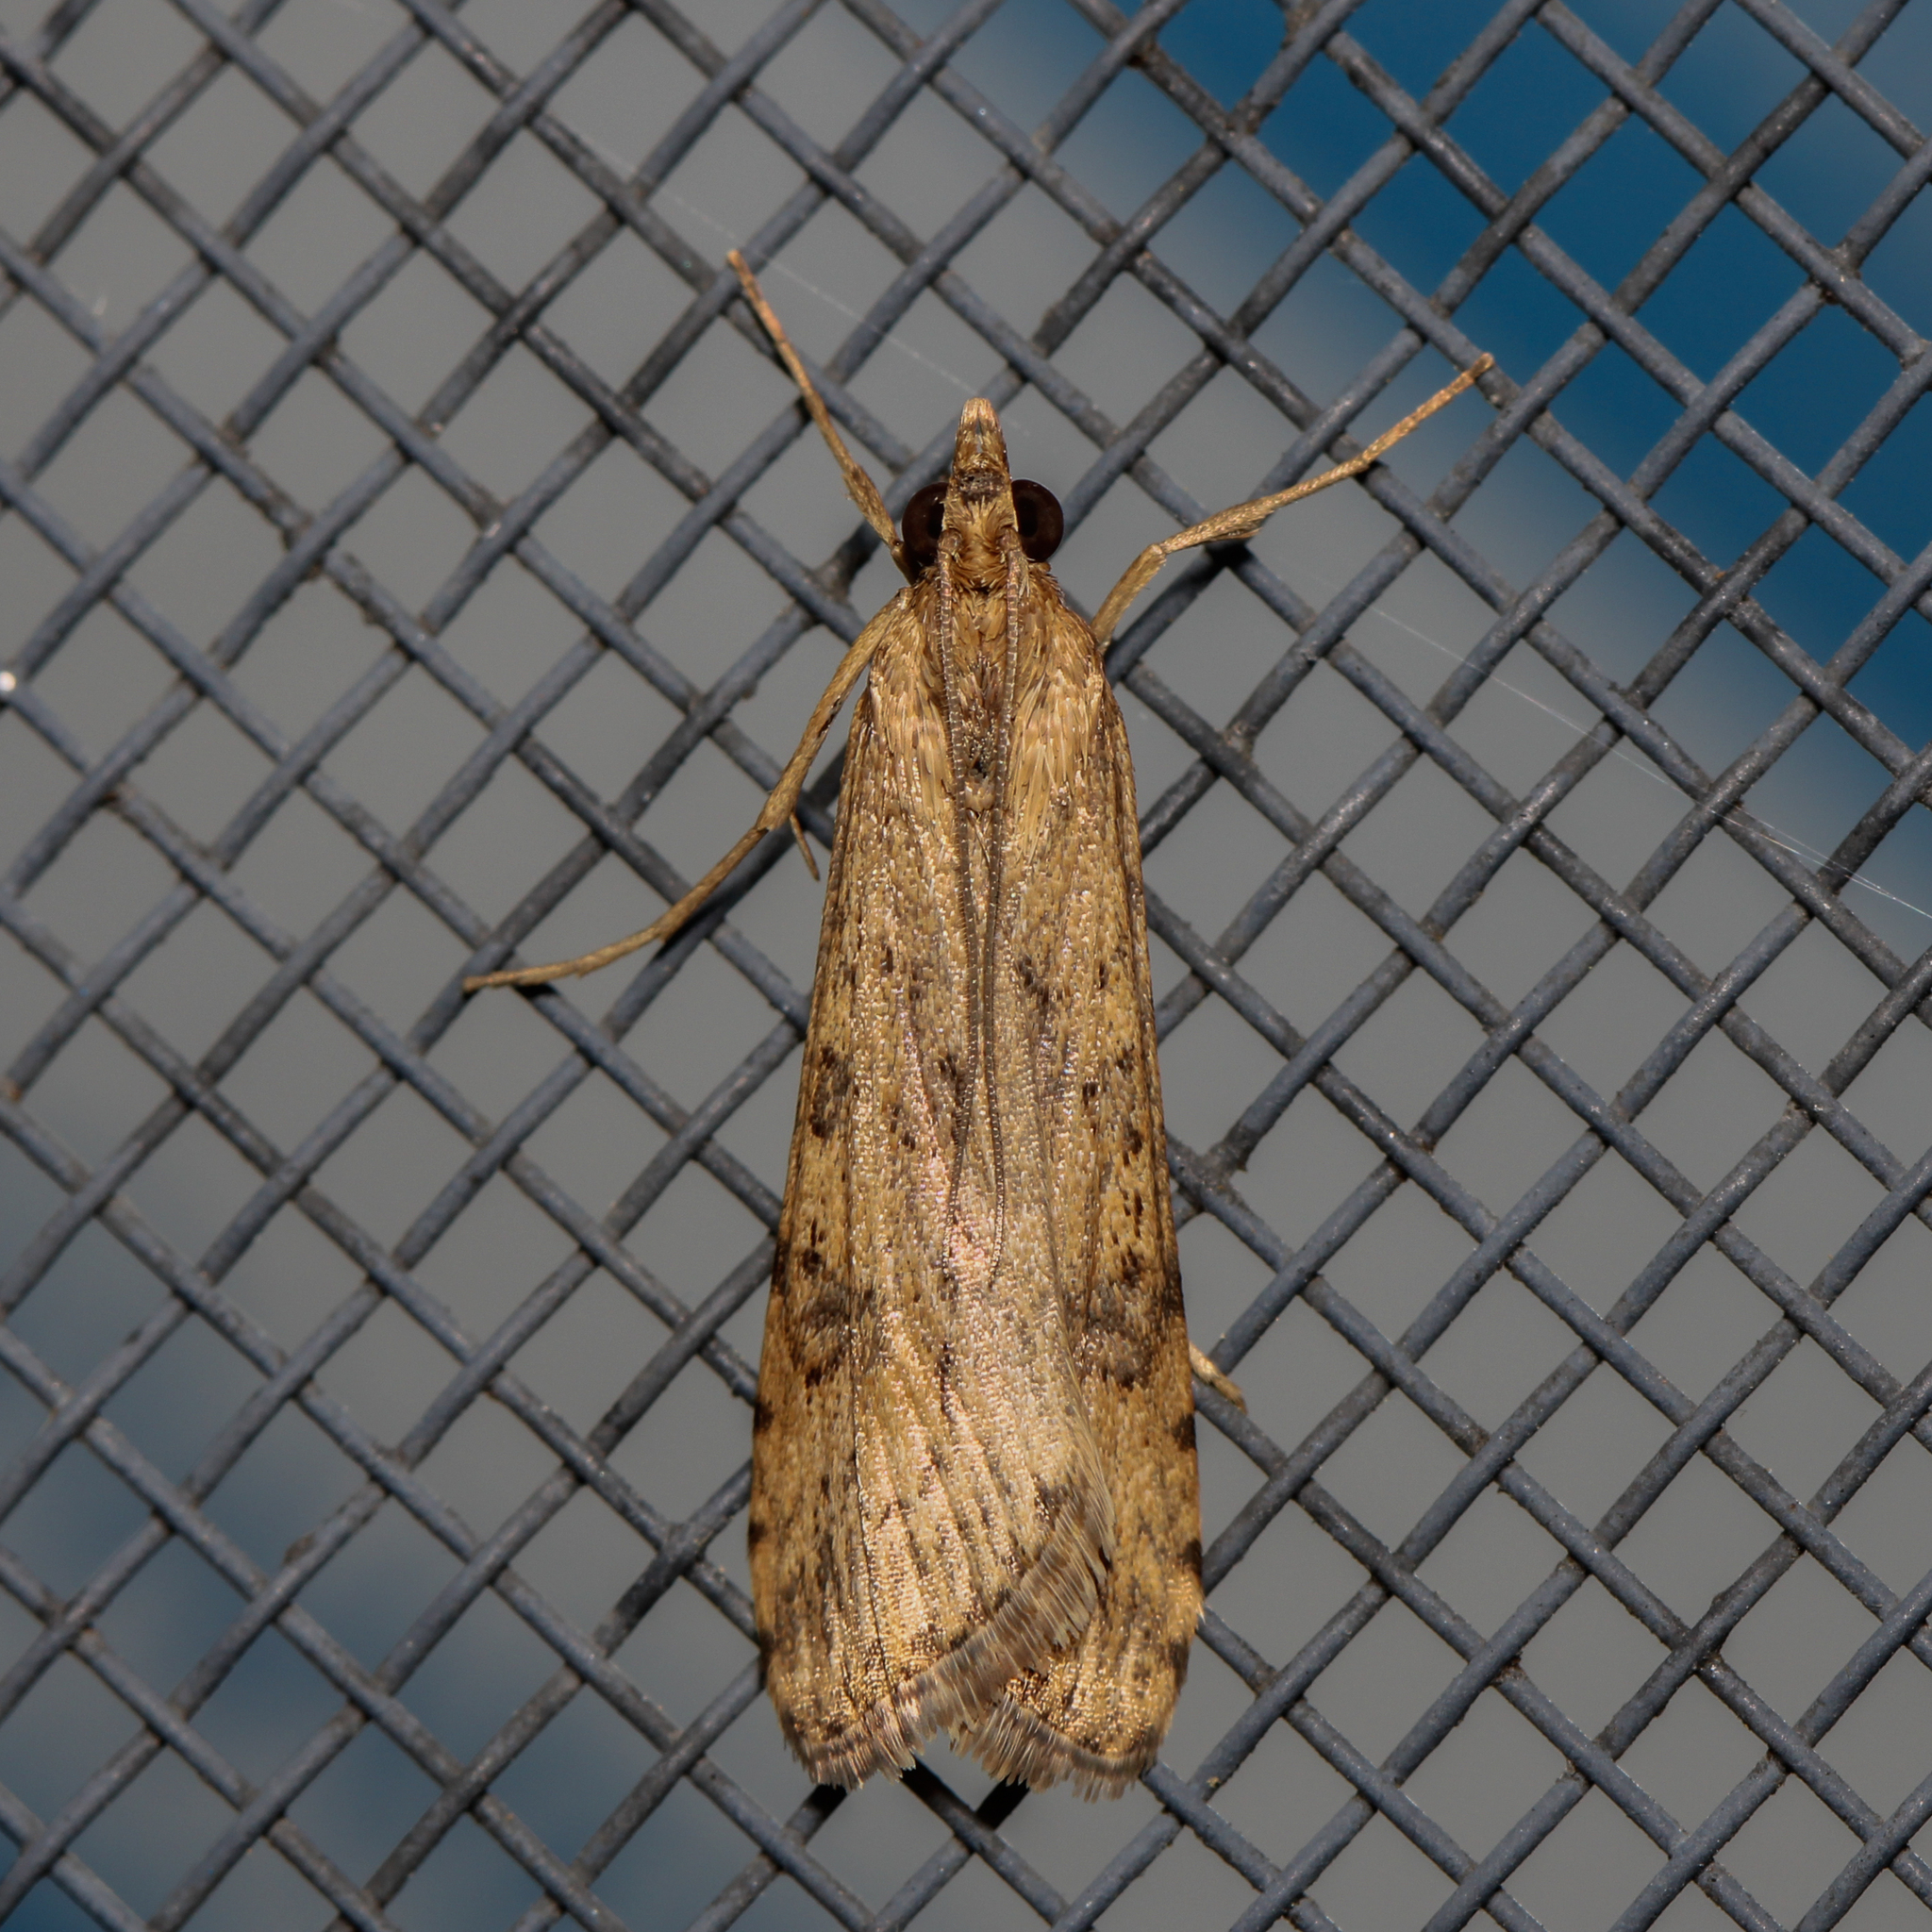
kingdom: Animalia
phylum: Arthropoda
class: Insecta
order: Lepidoptera
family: Crambidae
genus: Nomophila
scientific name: Nomophila nearctica
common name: American rush veneer
